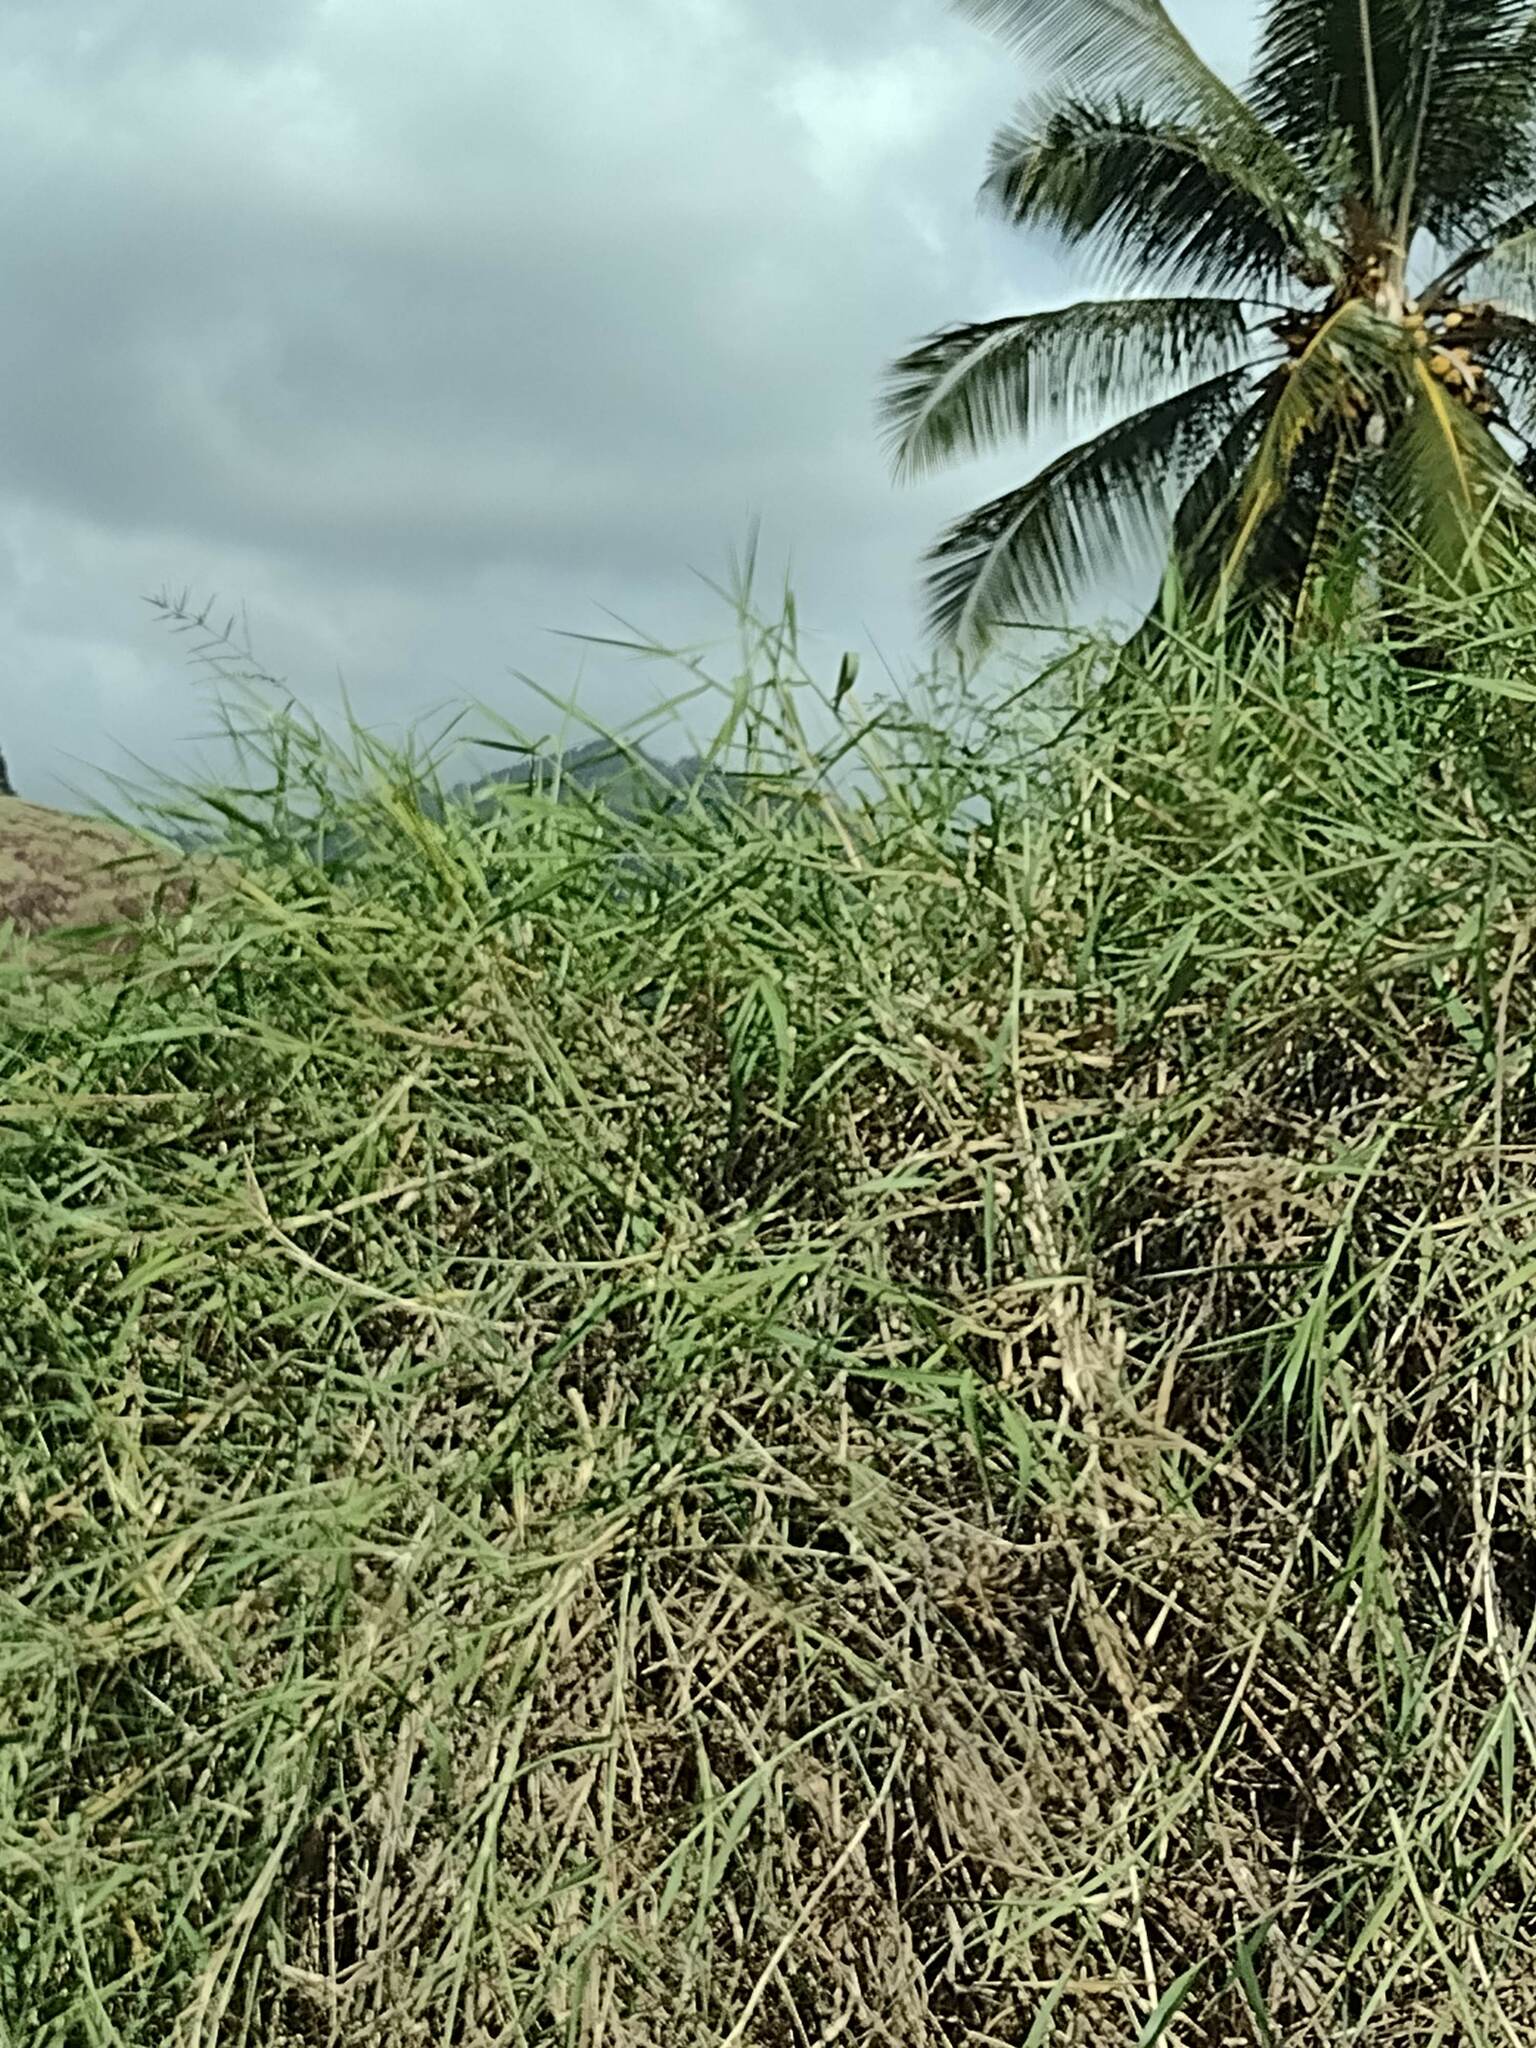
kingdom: Plantae
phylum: Tracheophyta
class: Liliopsida
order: Poales
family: Poaceae
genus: Urochloa
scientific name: Urochloa mutica
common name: Para grass
